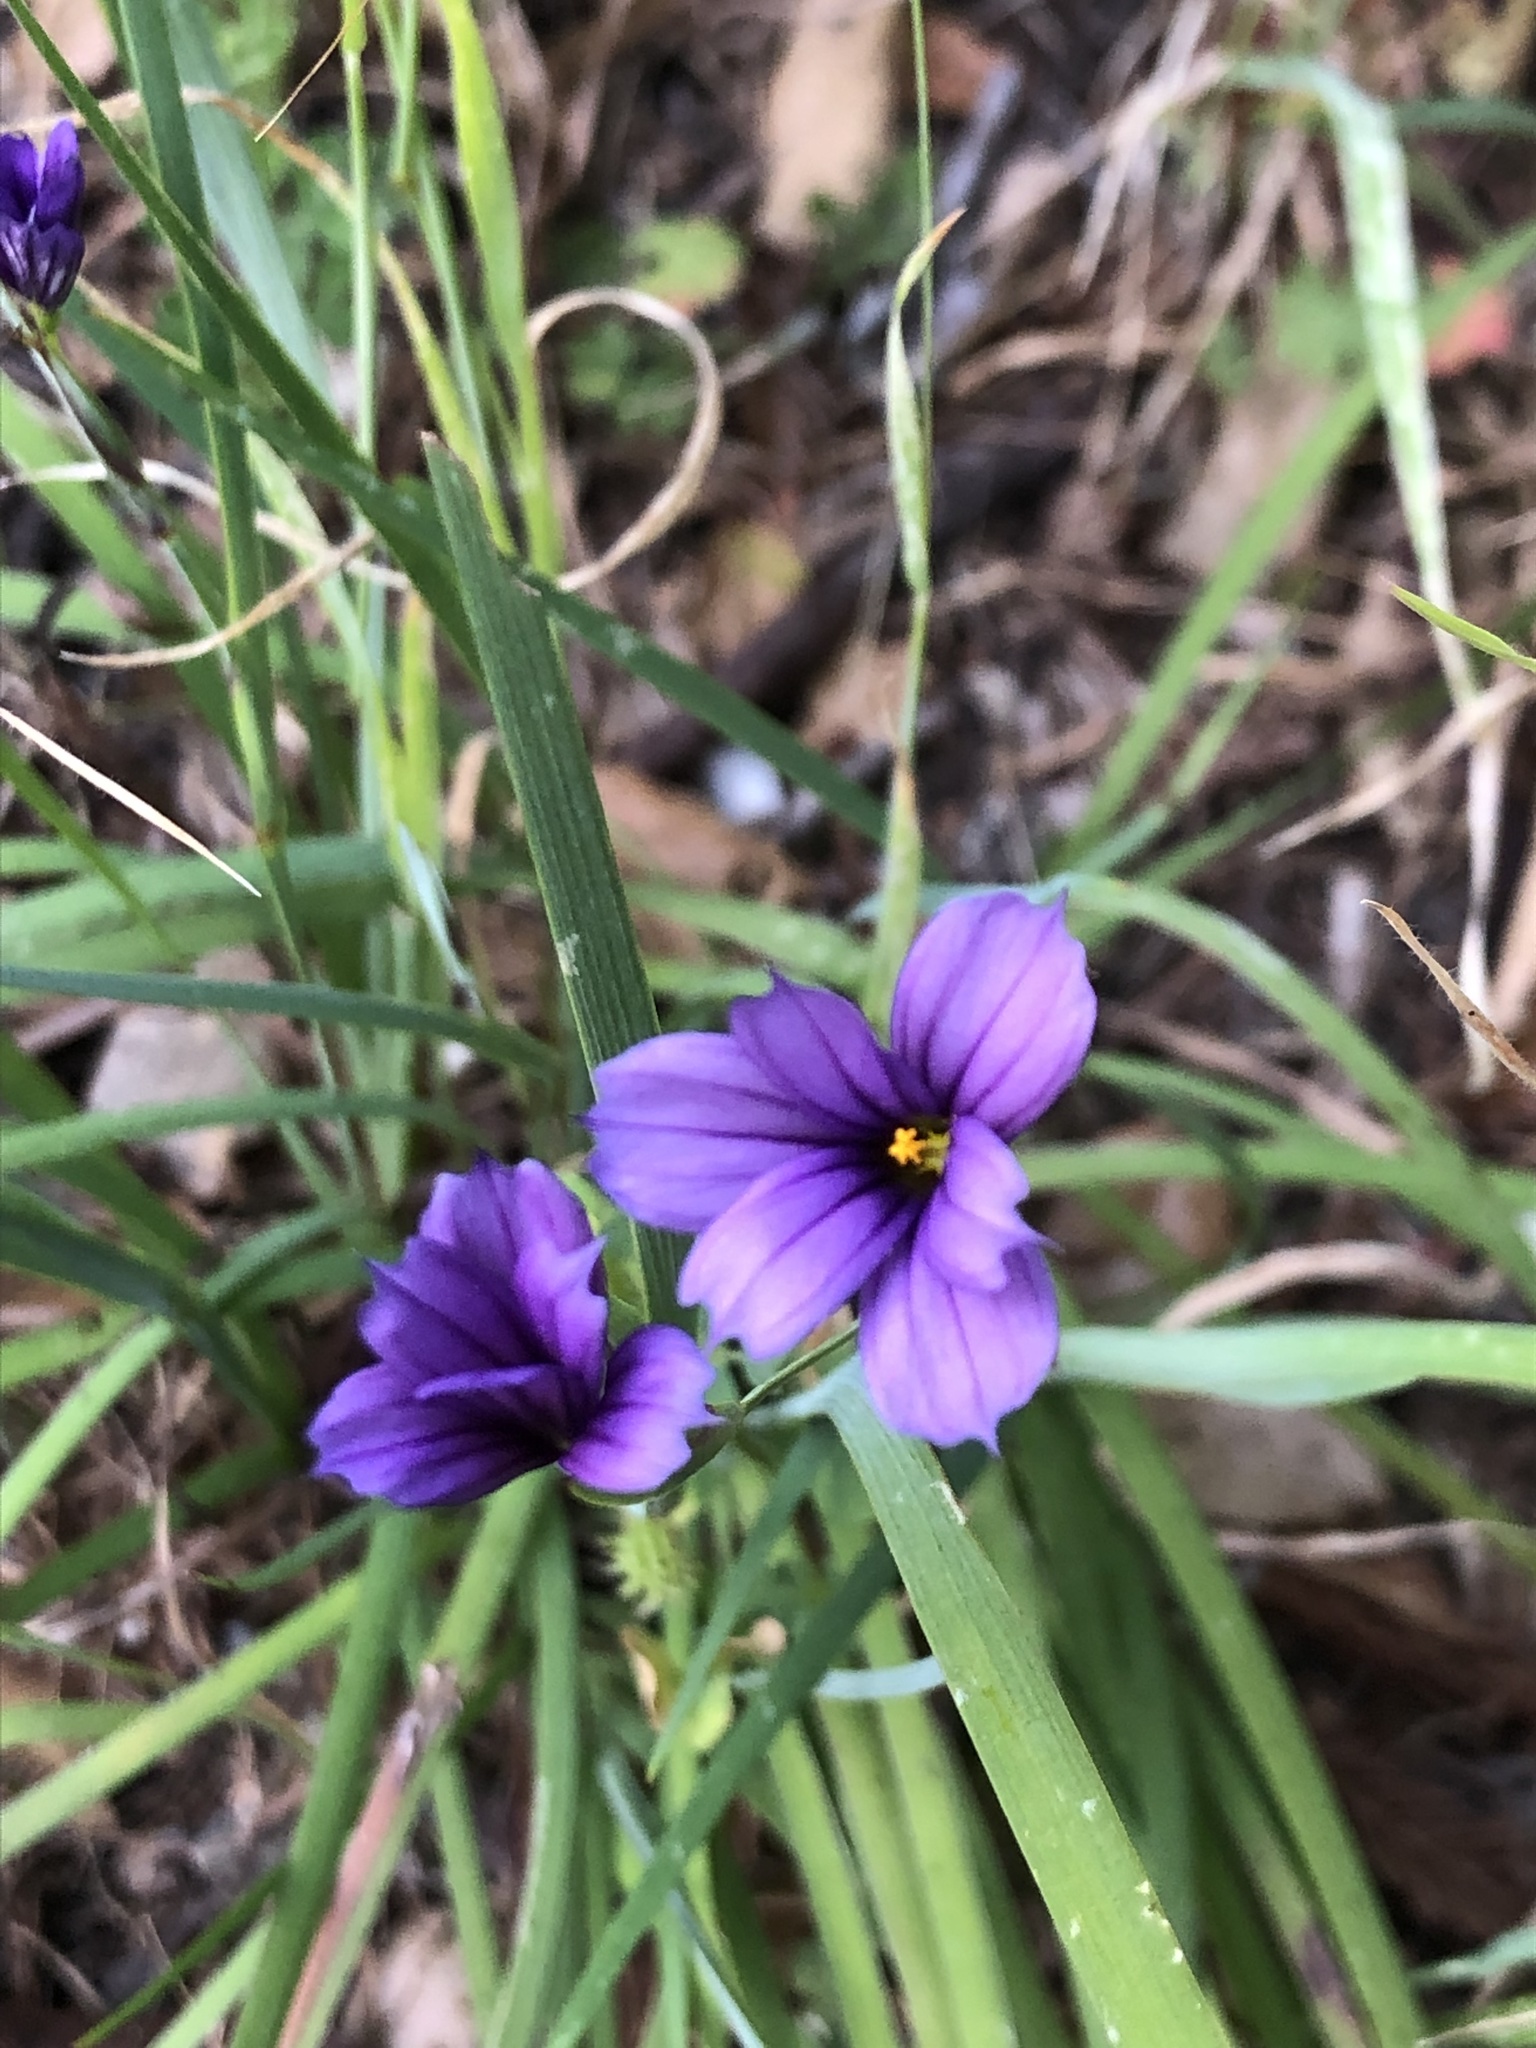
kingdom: Plantae
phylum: Tracheophyta
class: Liliopsida
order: Asparagales
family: Iridaceae
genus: Sisyrinchium
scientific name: Sisyrinchium bellum
